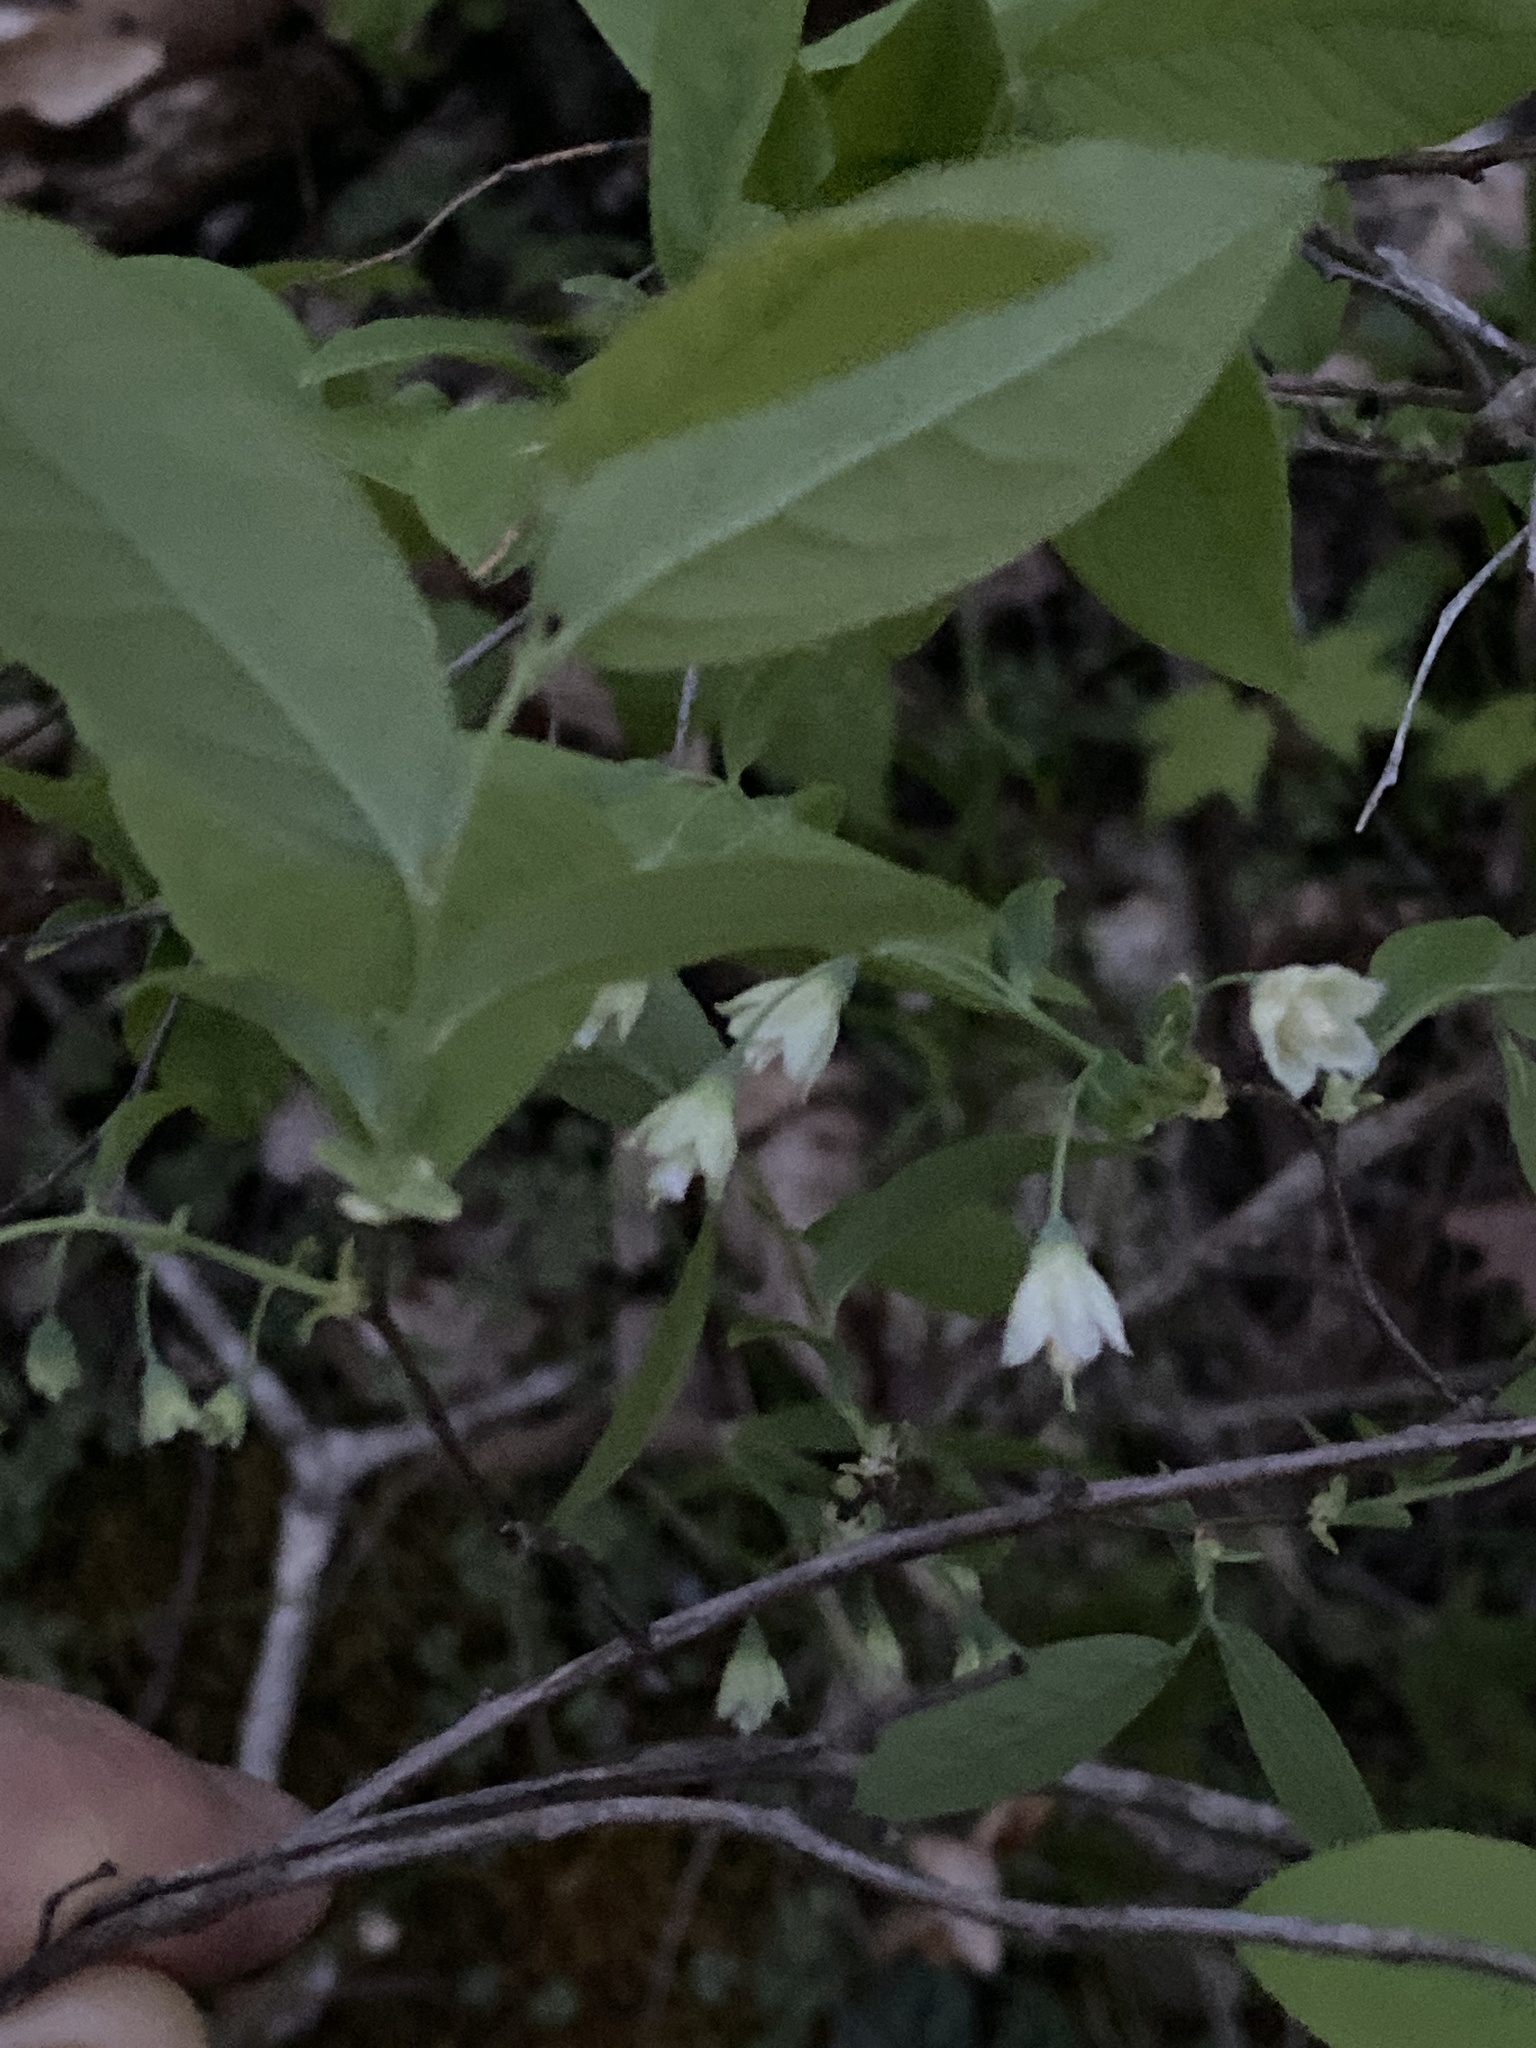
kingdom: Plantae
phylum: Tracheophyta
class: Magnoliopsida
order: Ericales
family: Ericaceae
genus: Vaccinium
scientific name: Vaccinium stamineum
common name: Deerberry
